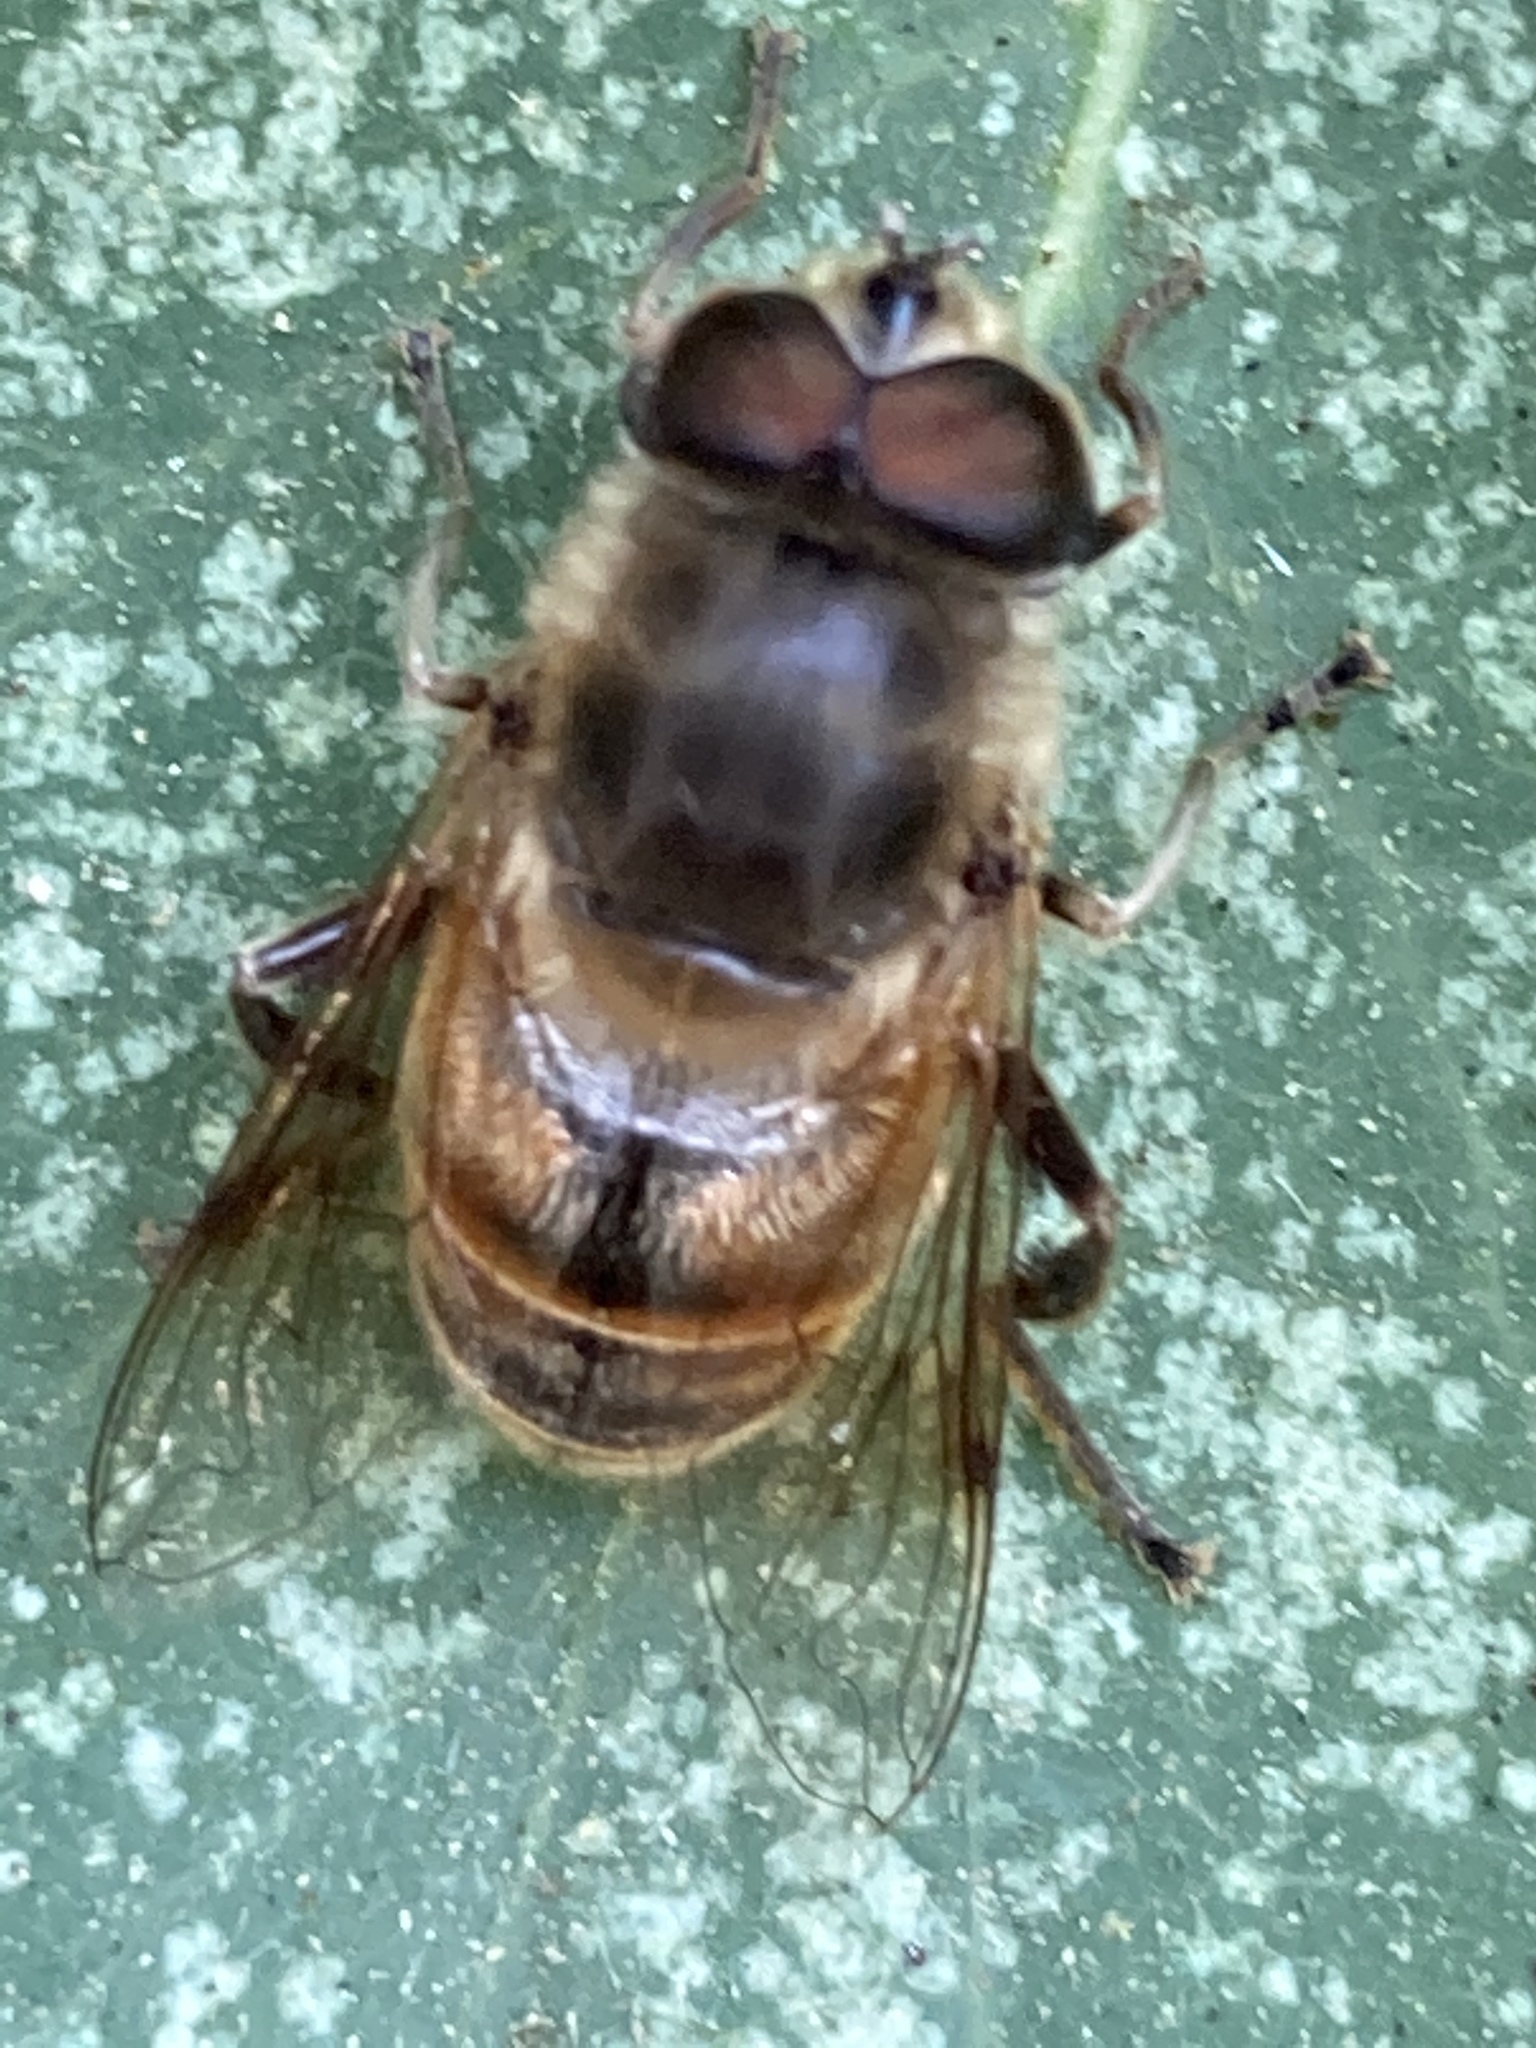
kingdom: Animalia
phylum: Arthropoda
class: Insecta
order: Diptera
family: Syrphidae
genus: Eristalis
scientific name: Eristalis tenax
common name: Drone fly
